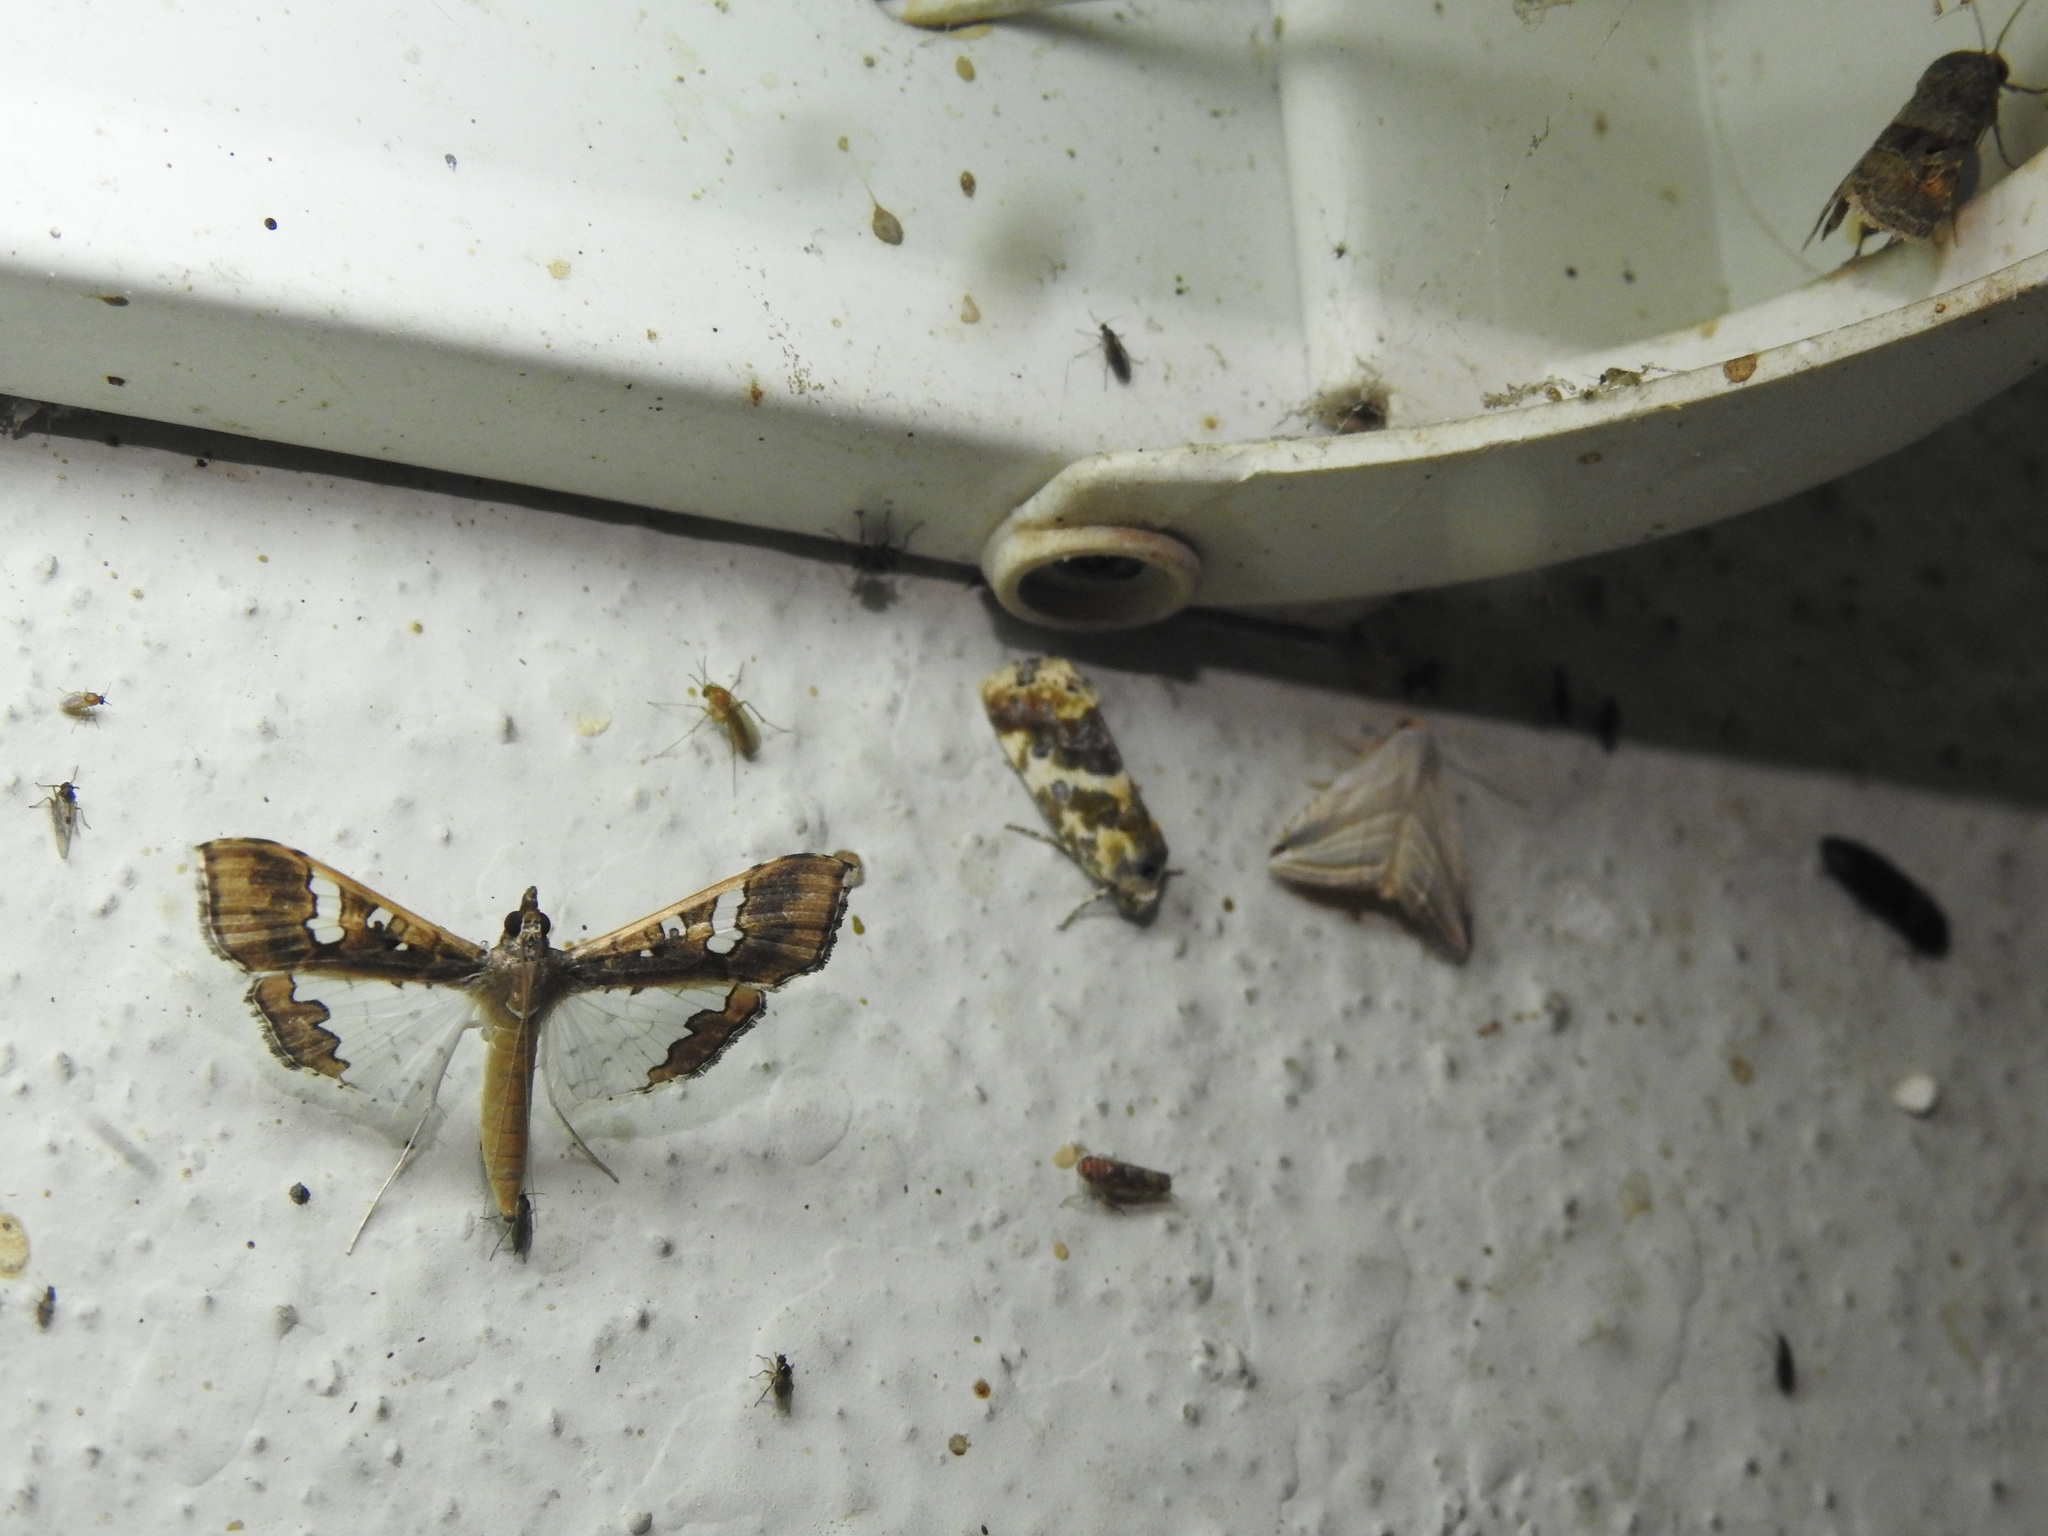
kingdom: Animalia
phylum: Arthropoda
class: Insecta
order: Lepidoptera
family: Crambidae
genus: Maruca
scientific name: Maruca vitrata
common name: Maruca pod borer
